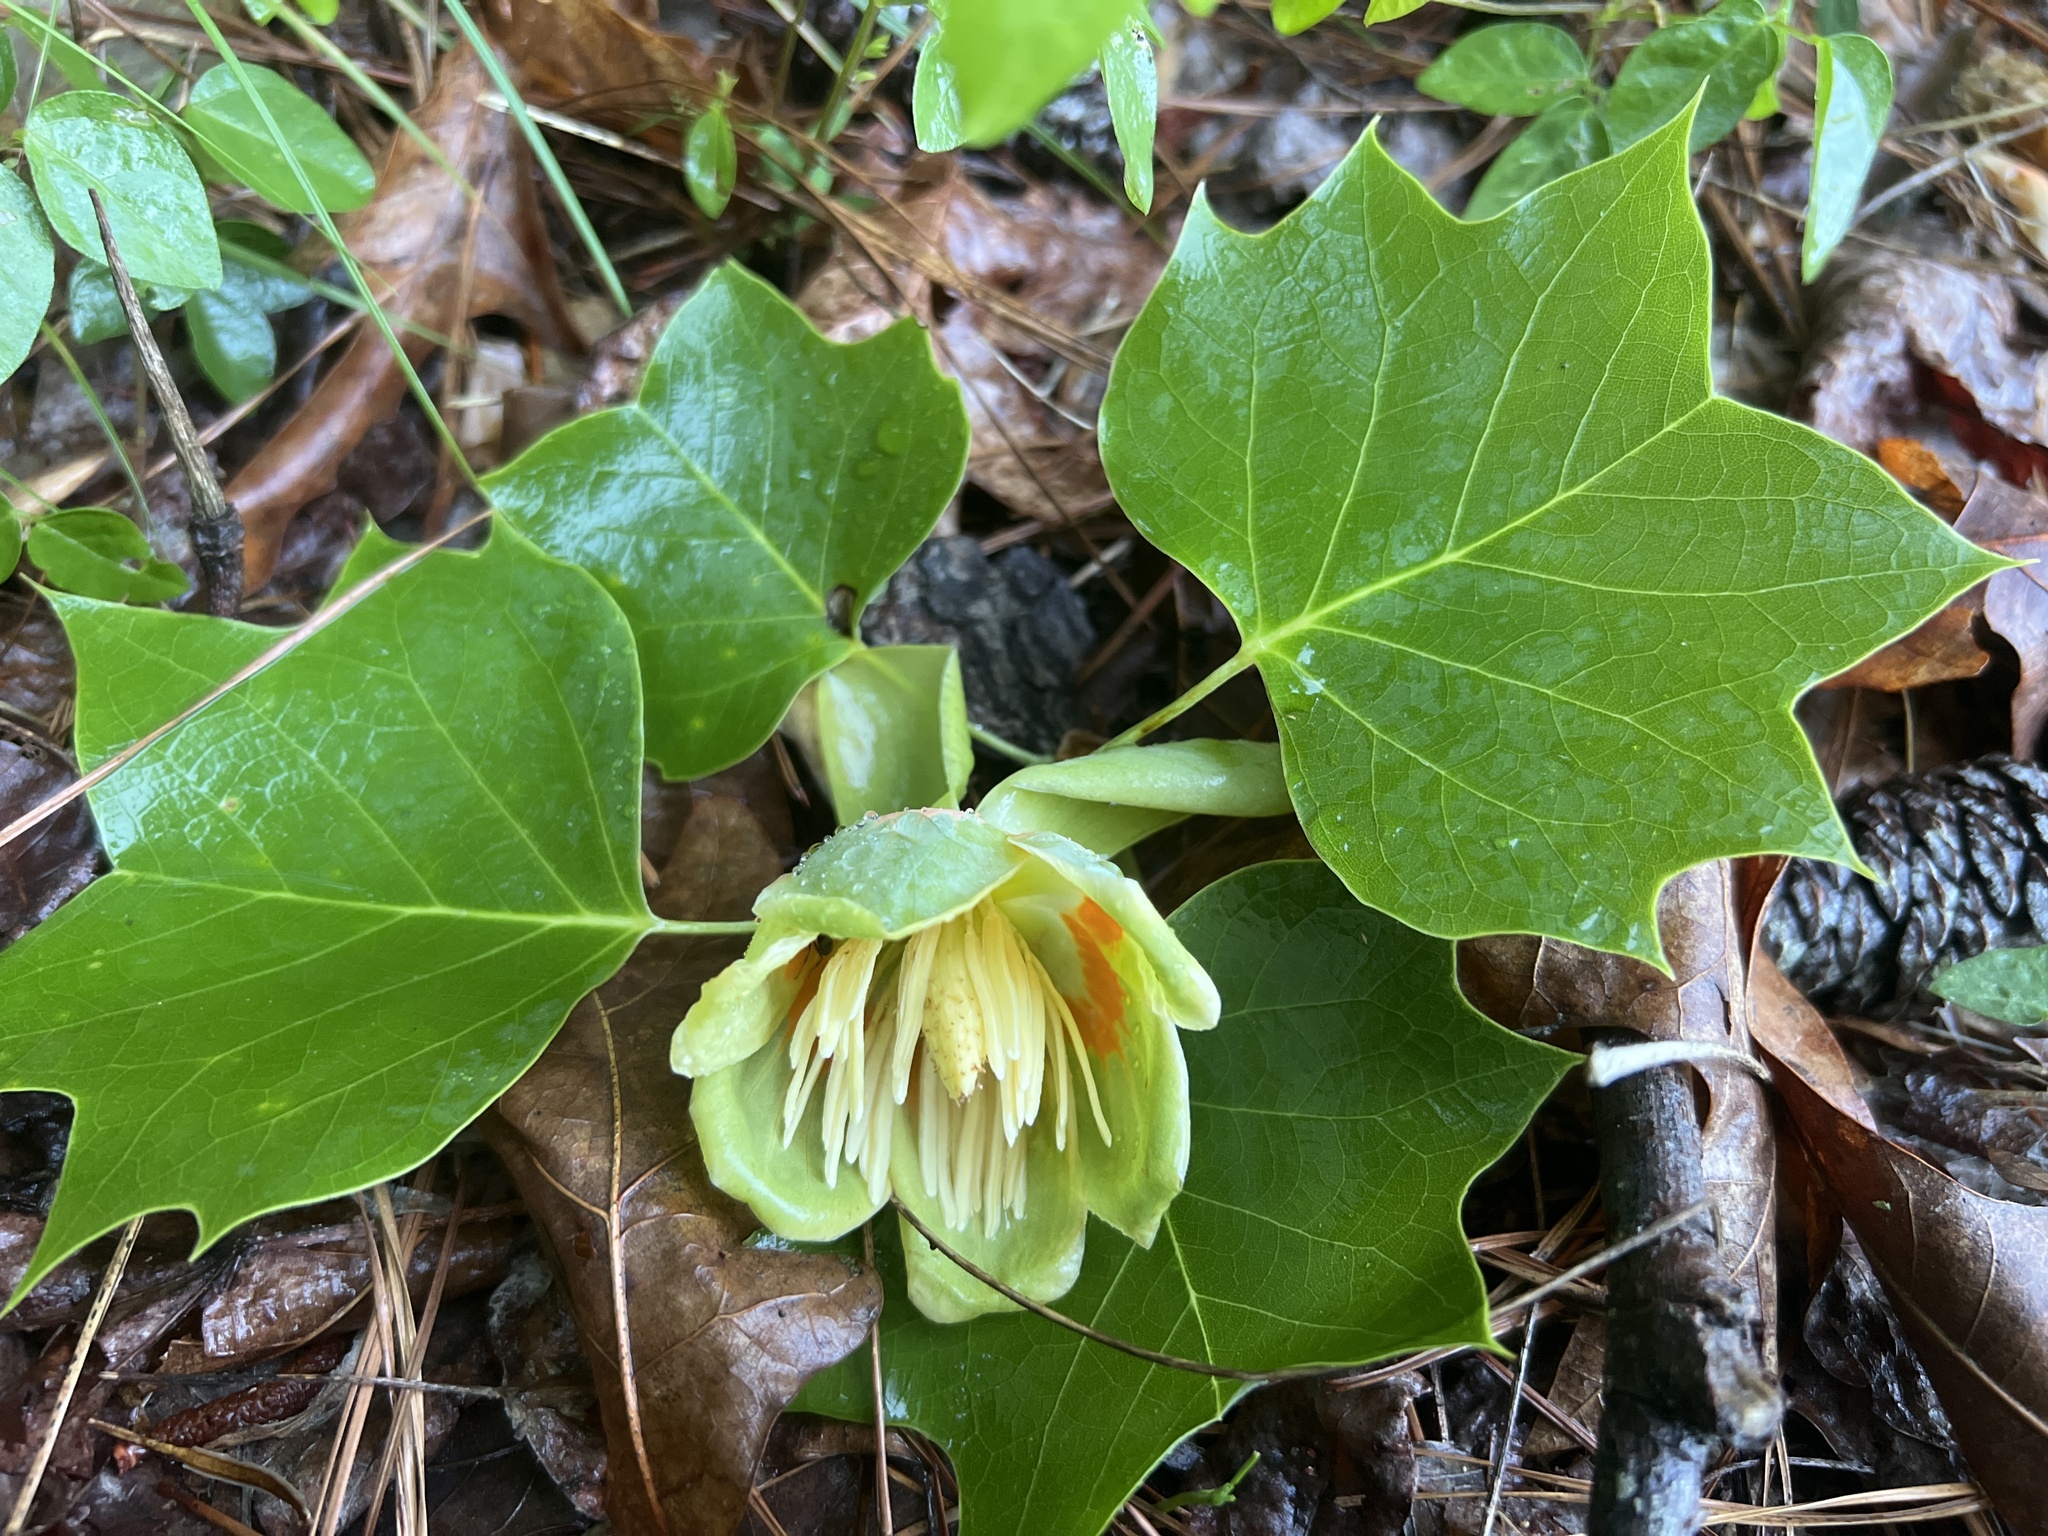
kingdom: Plantae
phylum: Tracheophyta
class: Magnoliopsida
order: Magnoliales
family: Magnoliaceae
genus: Liriodendron
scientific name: Liriodendron tulipifera
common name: Tulip tree
